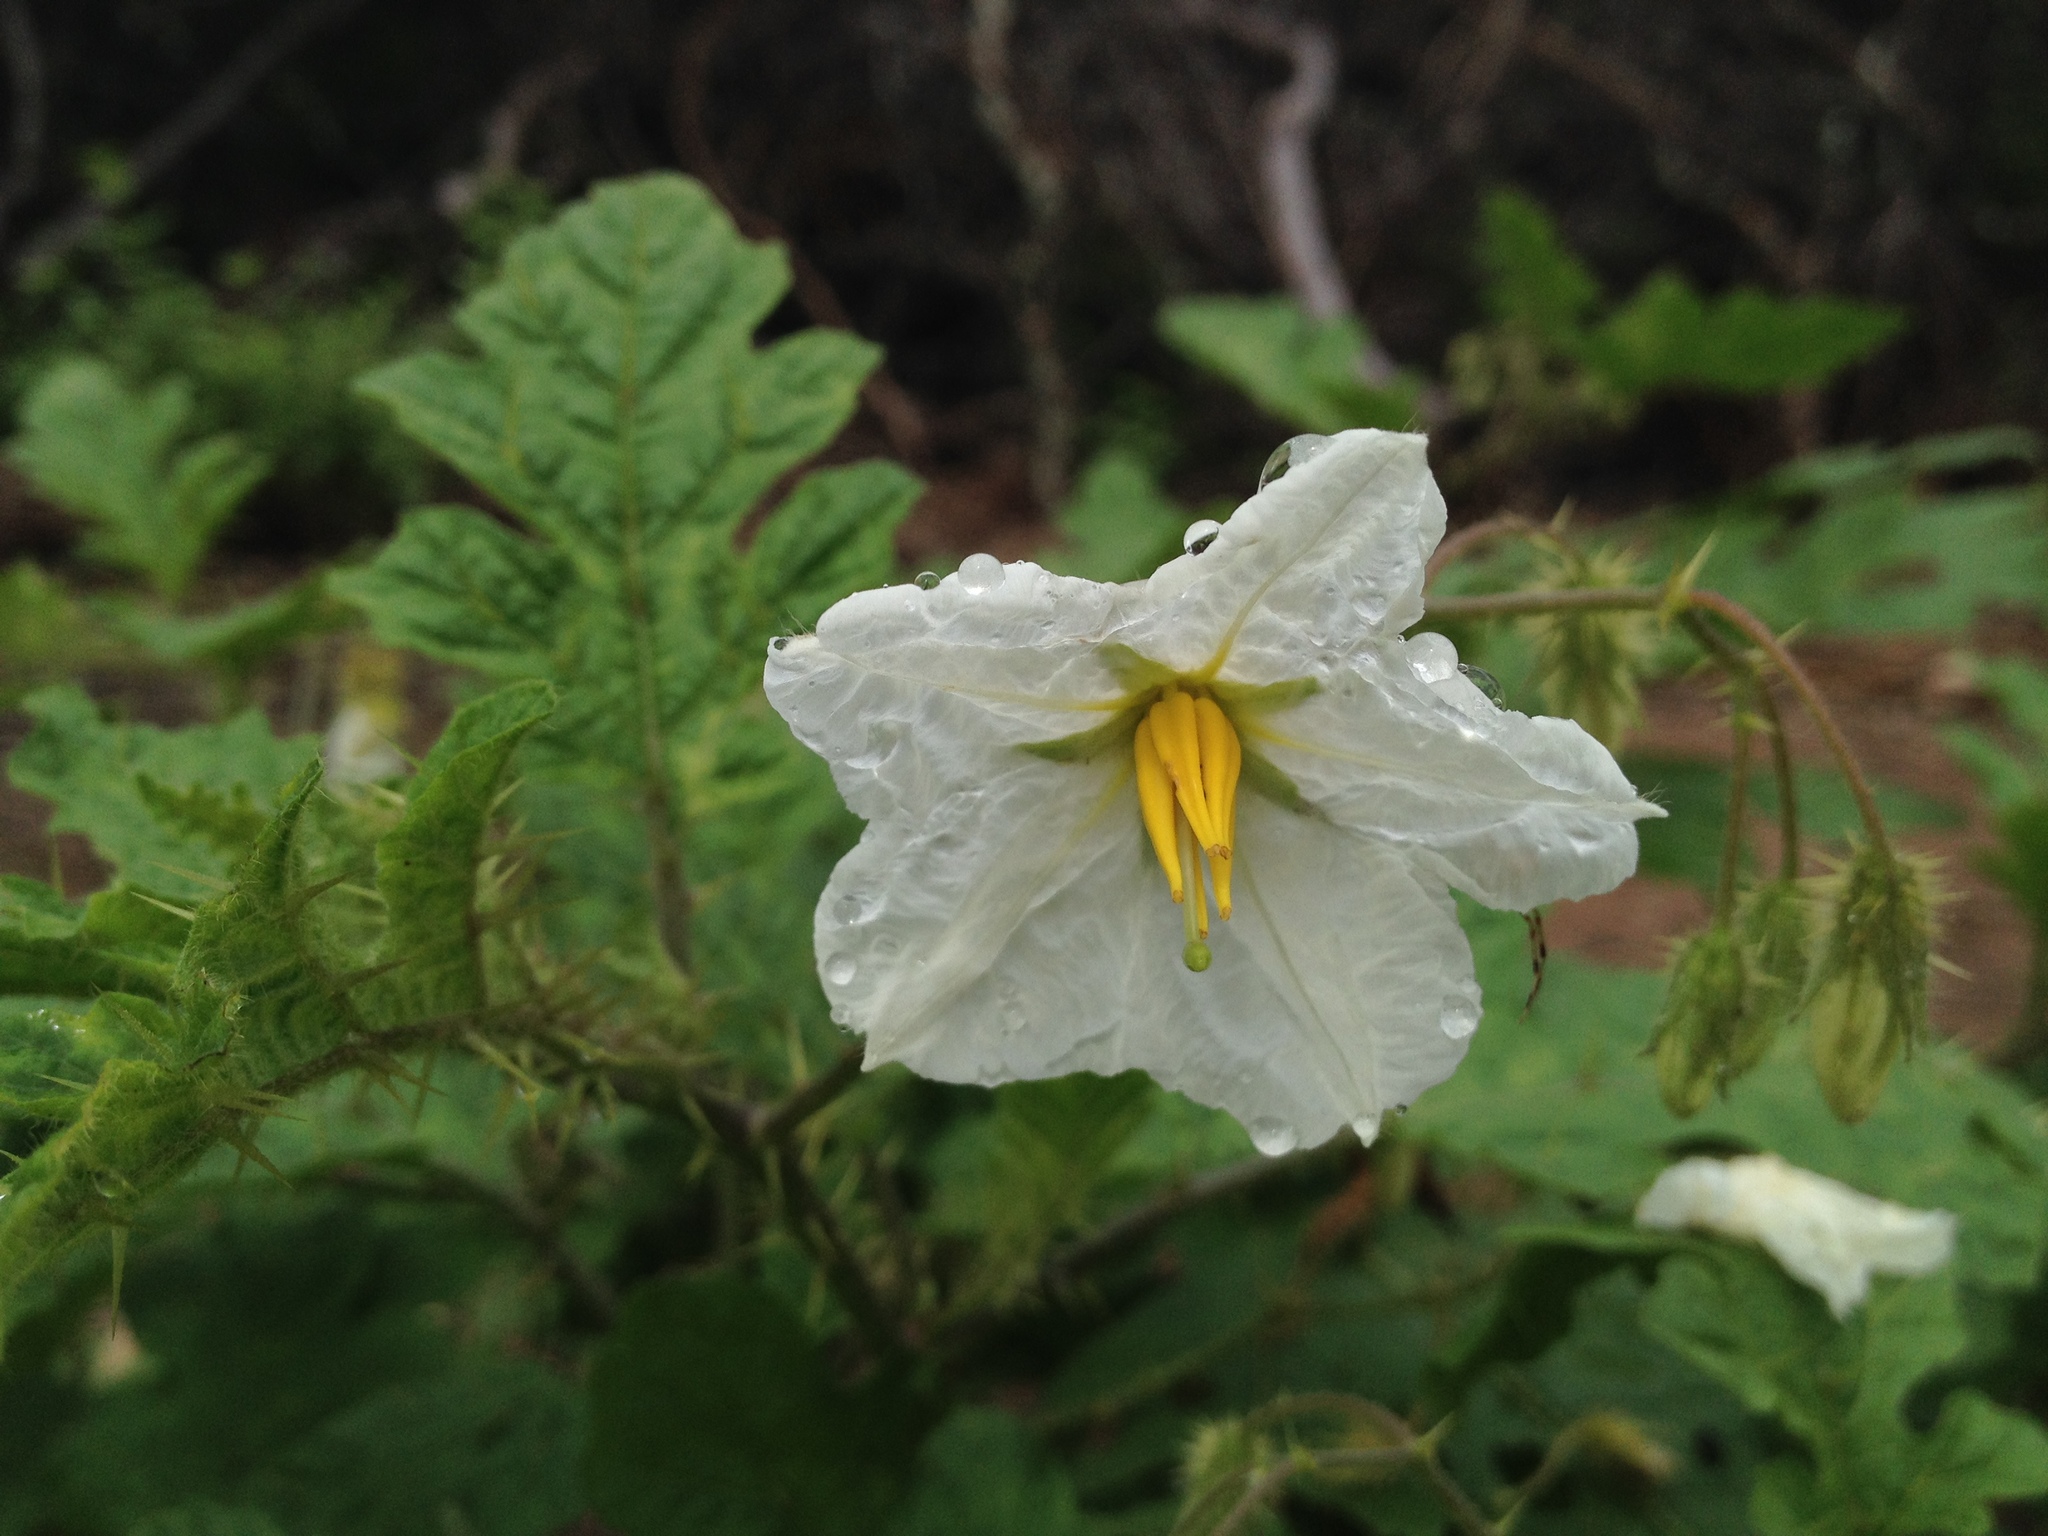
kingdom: Plantae
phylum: Tracheophyta
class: Magnoliopsida
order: Solanales
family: Solanaceae
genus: Solanum
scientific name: Solanum hieronymi
